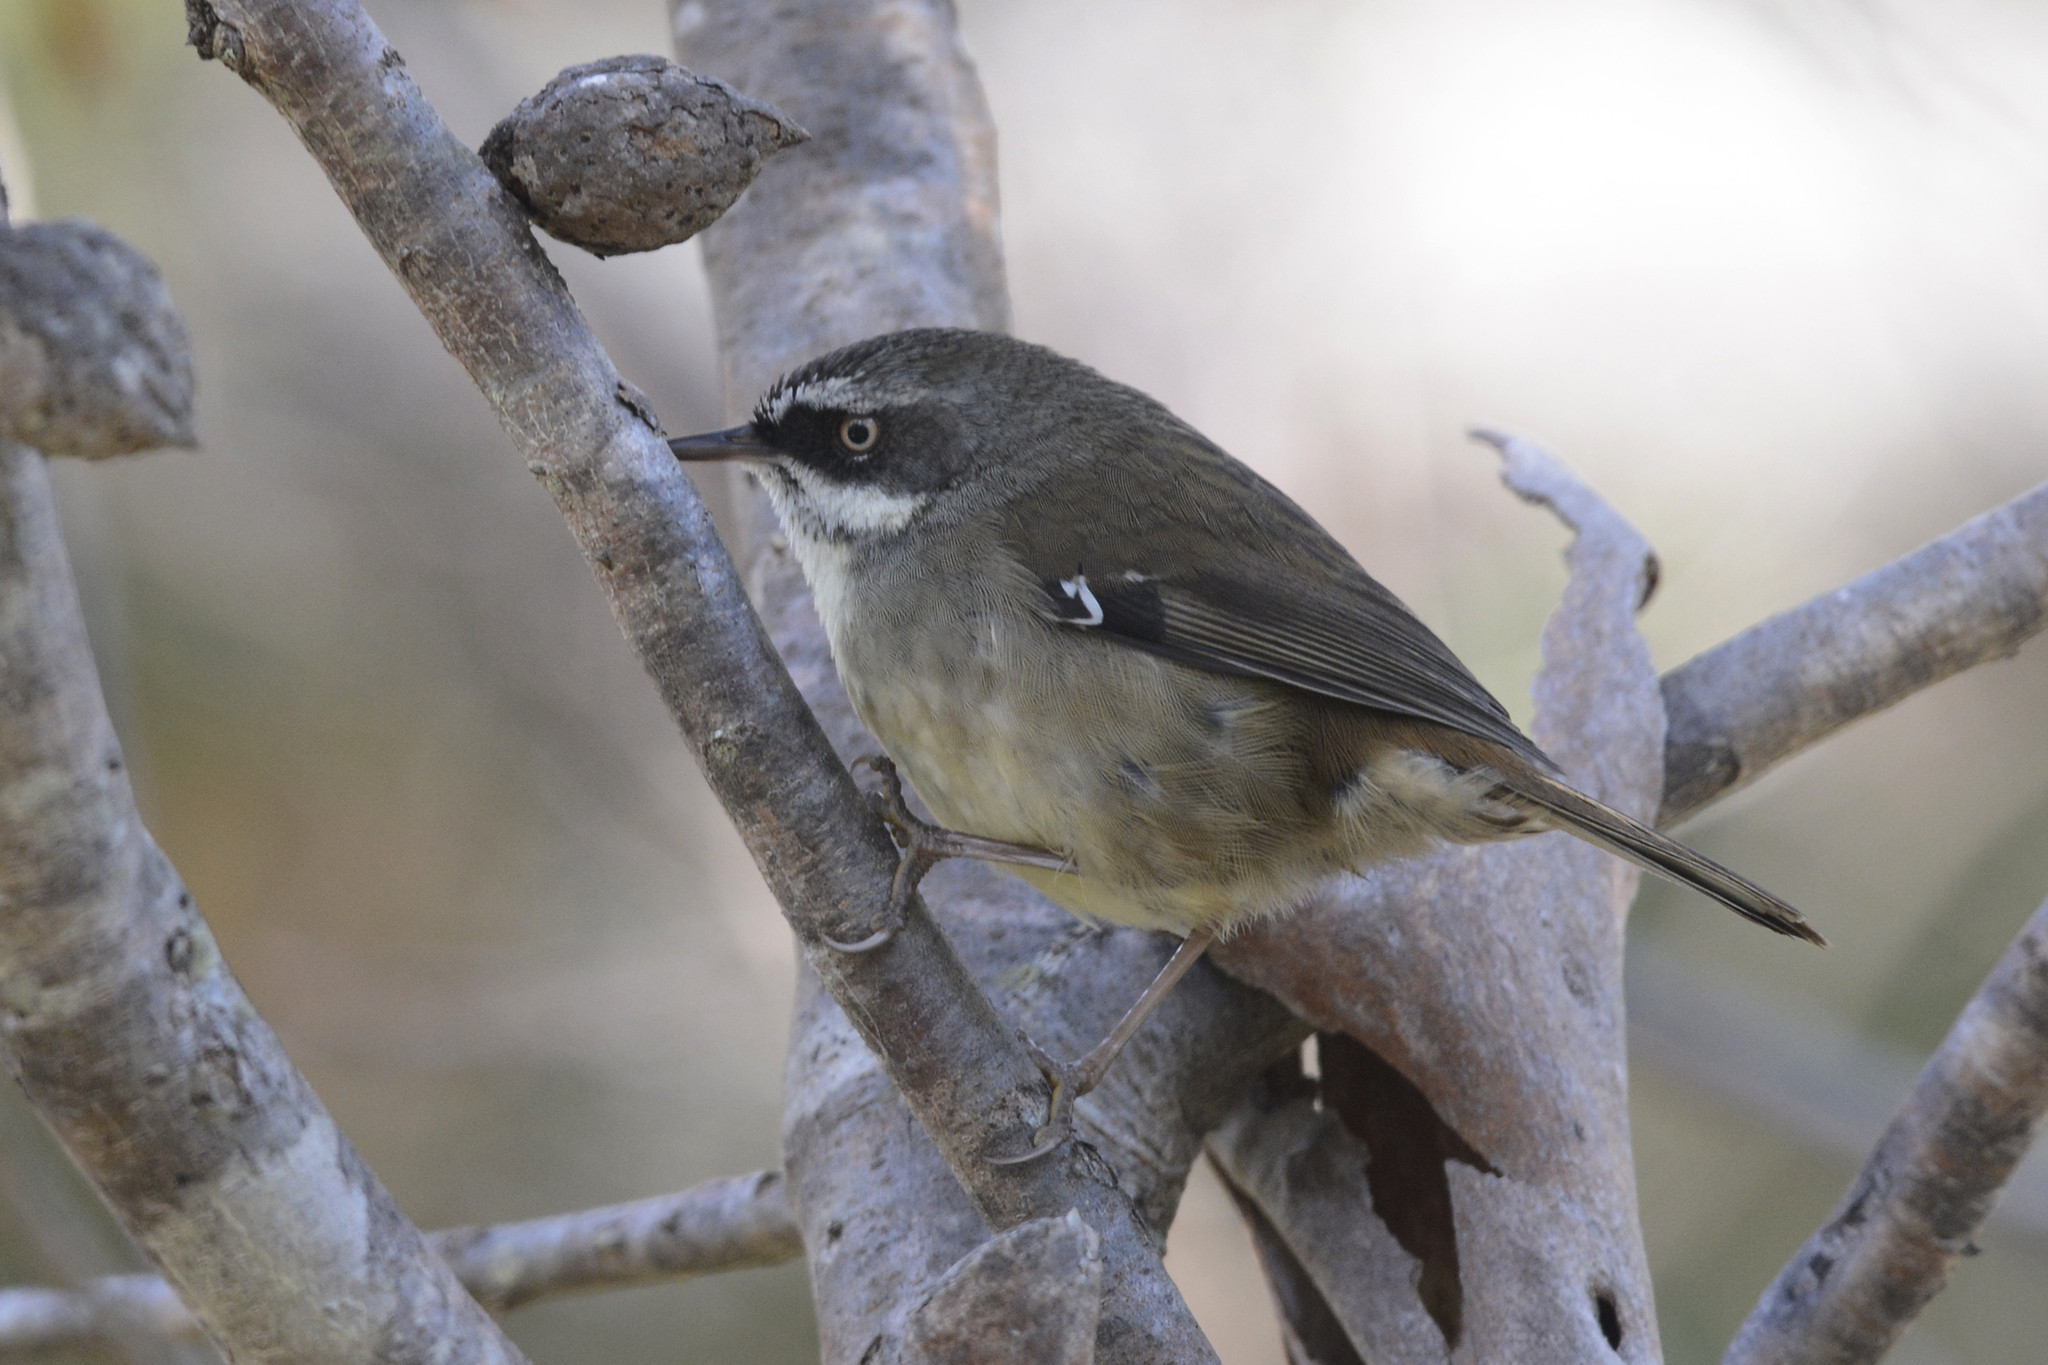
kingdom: Animalia
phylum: Chordata
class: Aves
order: Passeriformes
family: Acanthizidae
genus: Sericornis
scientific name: Sericornis frontalis
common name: White-browed scrubwren
